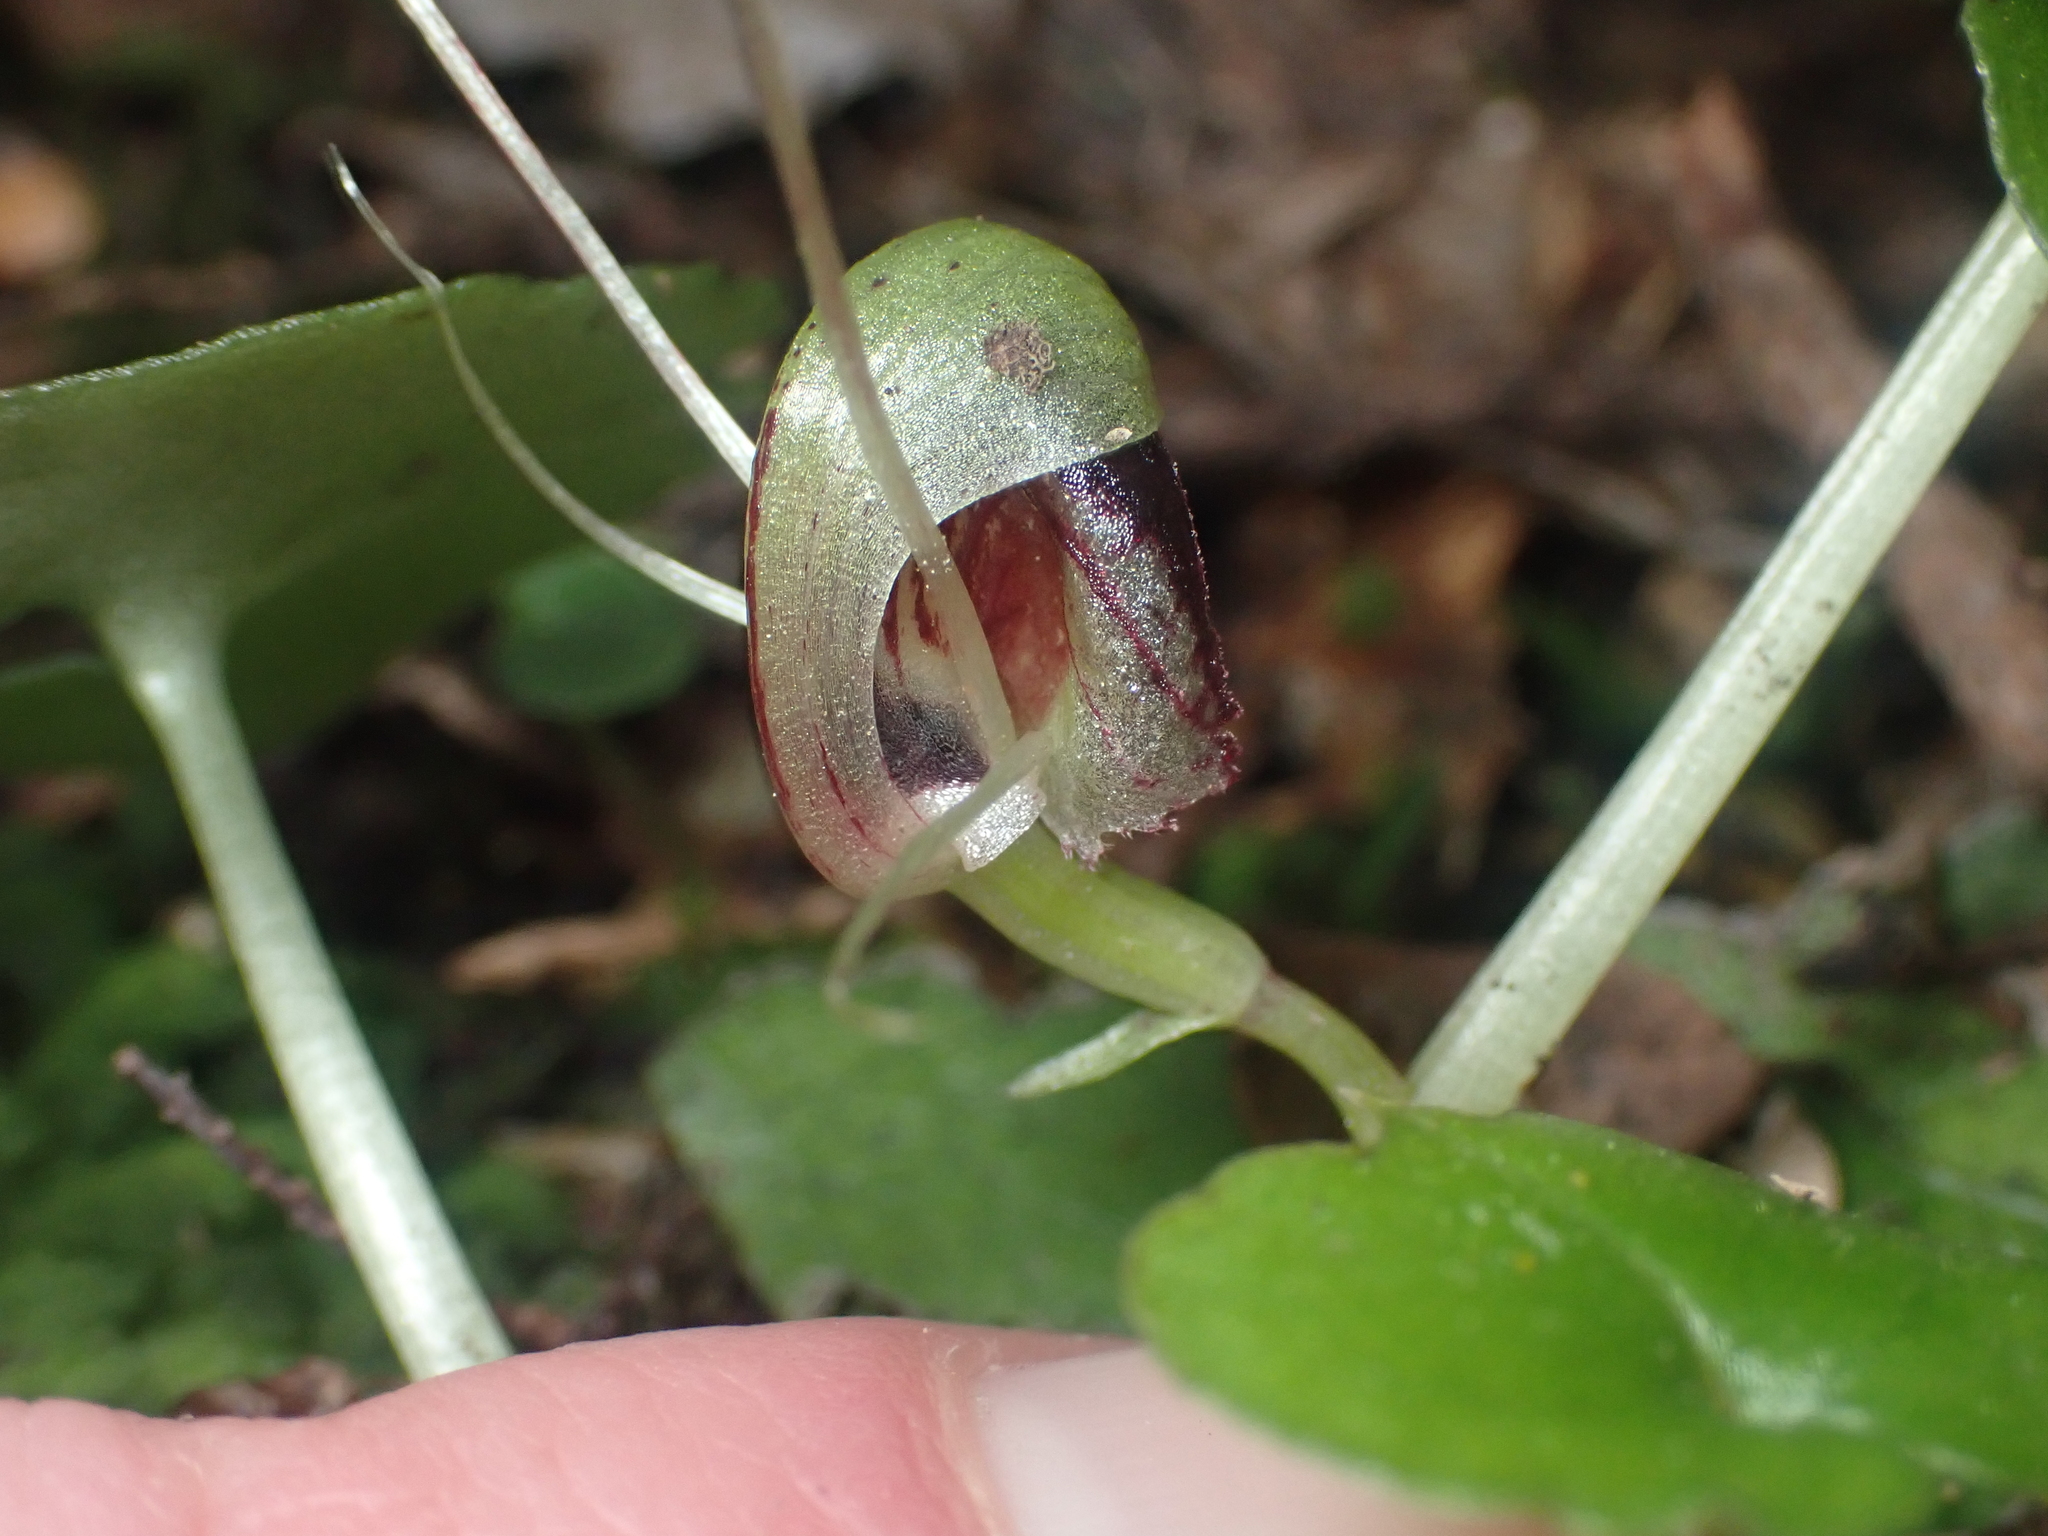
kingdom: Plantae
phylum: Tracheophyta
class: Liliopsida
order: Asparagales
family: Orchidaceae
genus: Corybas
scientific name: Corybas vitreus
